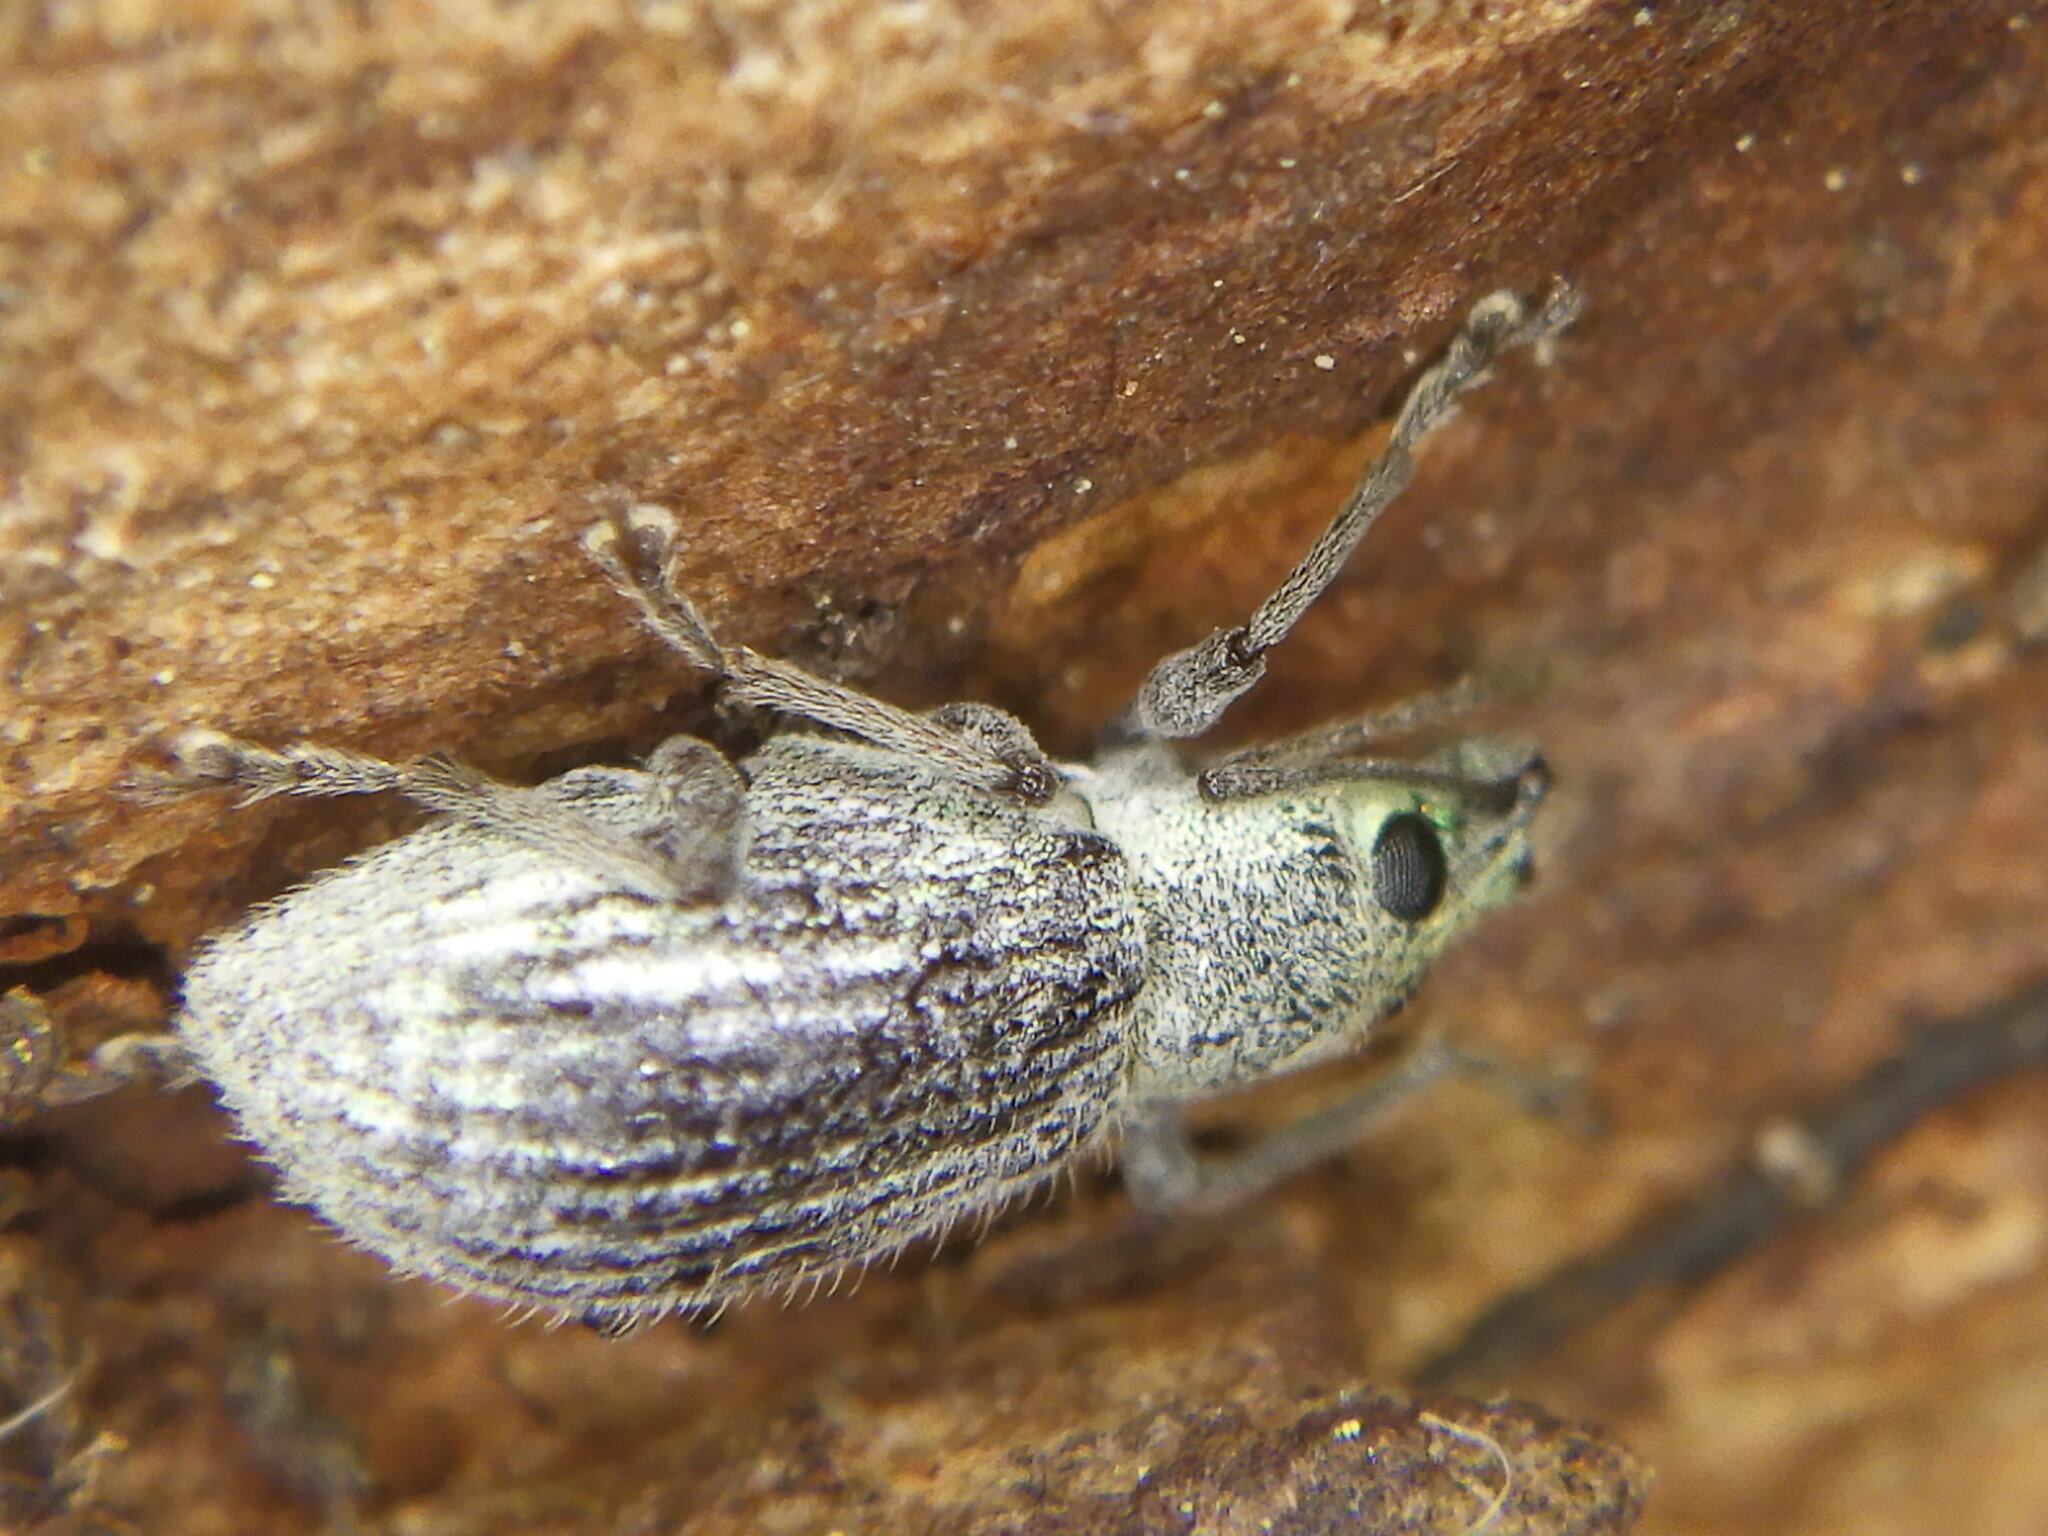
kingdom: Animalia
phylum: Arthropoda
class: Insecta
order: Coleoptera
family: Curculionidae
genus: Cyrtepistomus
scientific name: Cyrtepistomus castaneus
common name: Weevil
